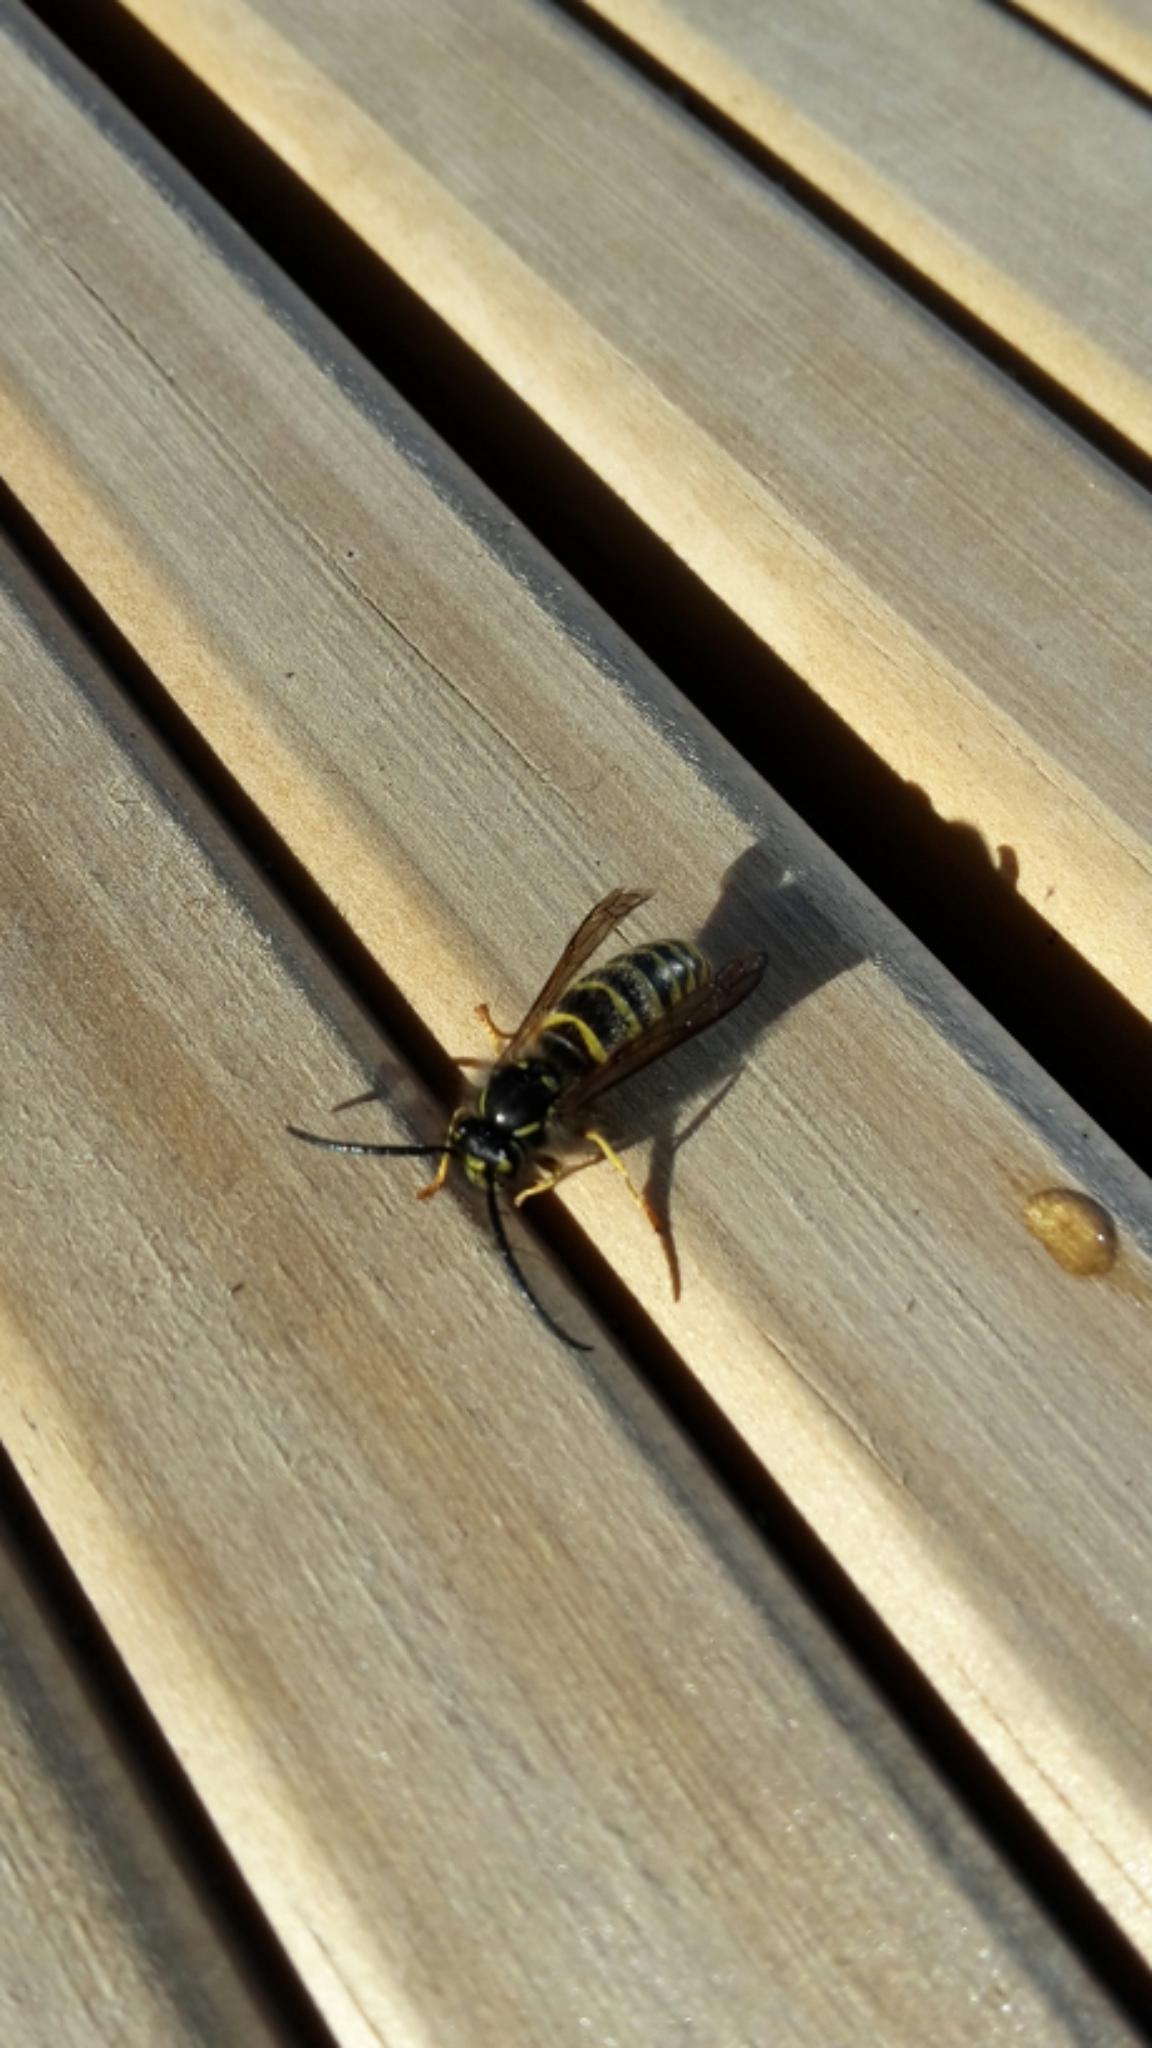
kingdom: Animalia
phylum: Arthropoda
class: Insecta
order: Hymenoptera
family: Vespidae
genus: Vespula
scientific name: Vespula vulgaris
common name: Common wasp
